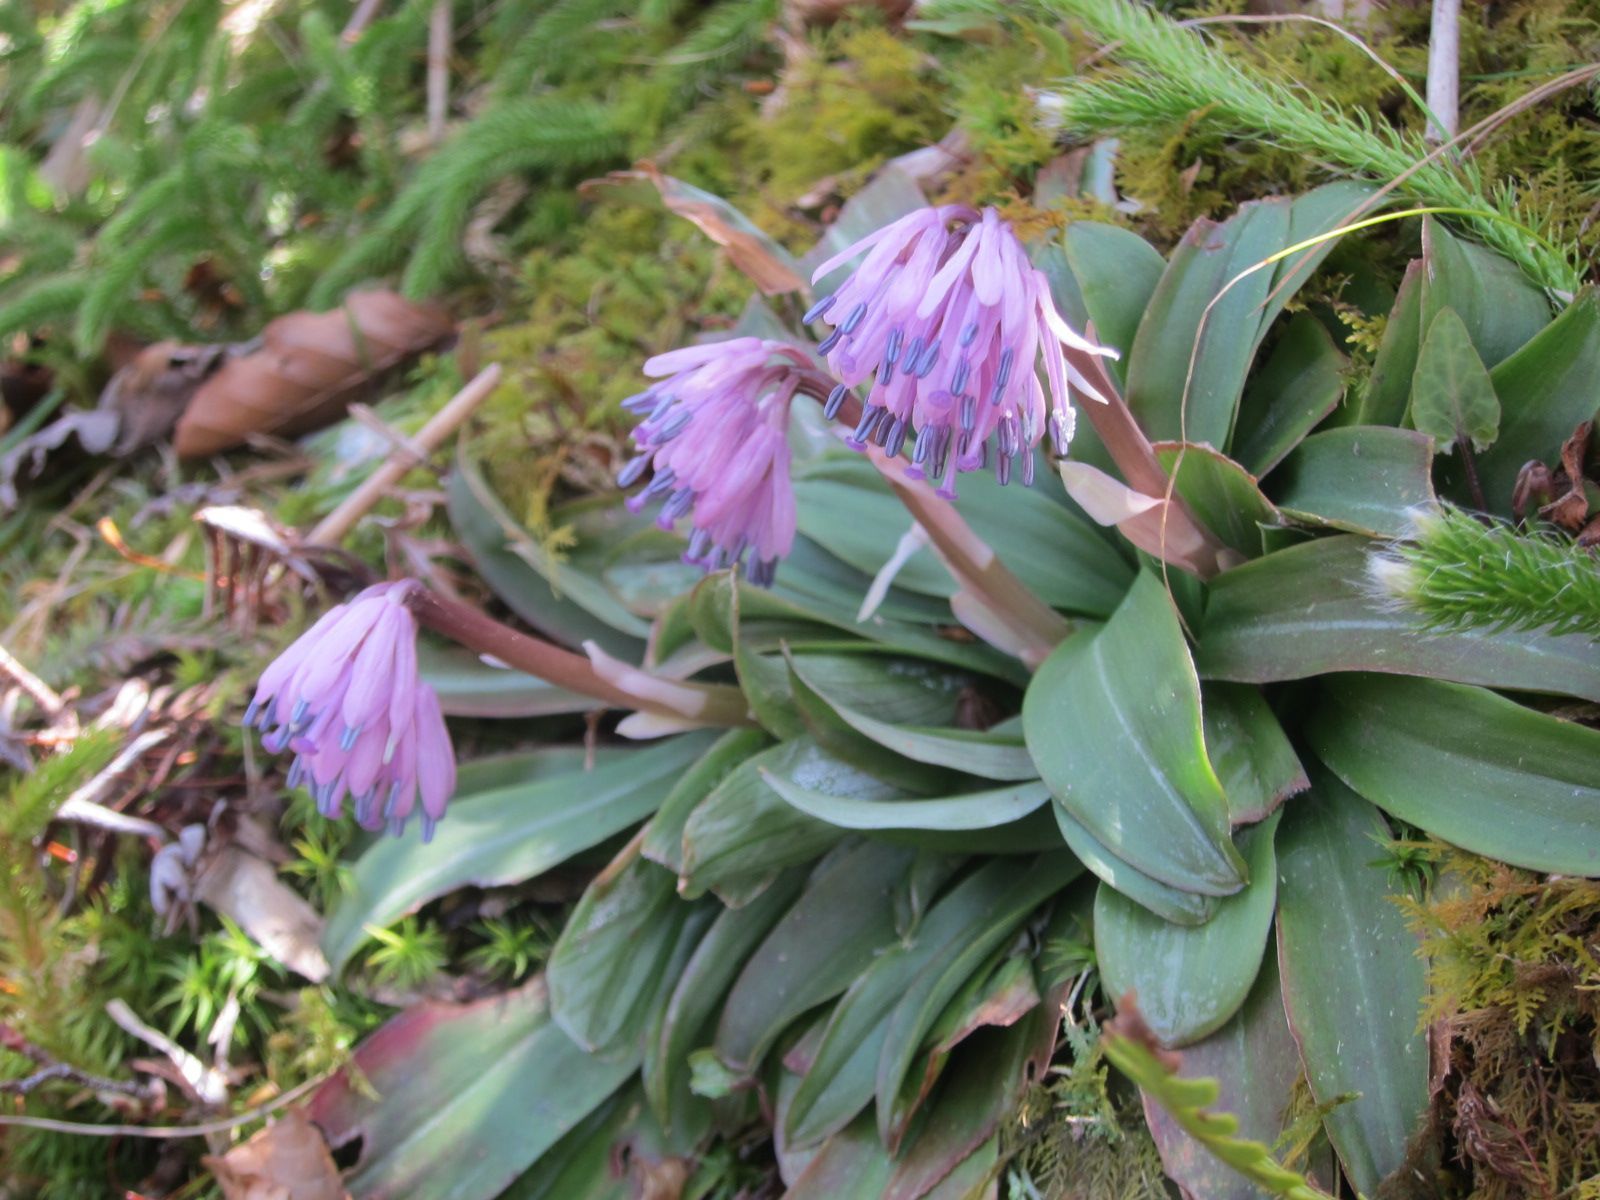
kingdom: Plantae
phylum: Tracheophyta
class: Liliopsida
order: Liliales
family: Melanthiaceae
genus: Helonias
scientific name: Helonias orientalis
